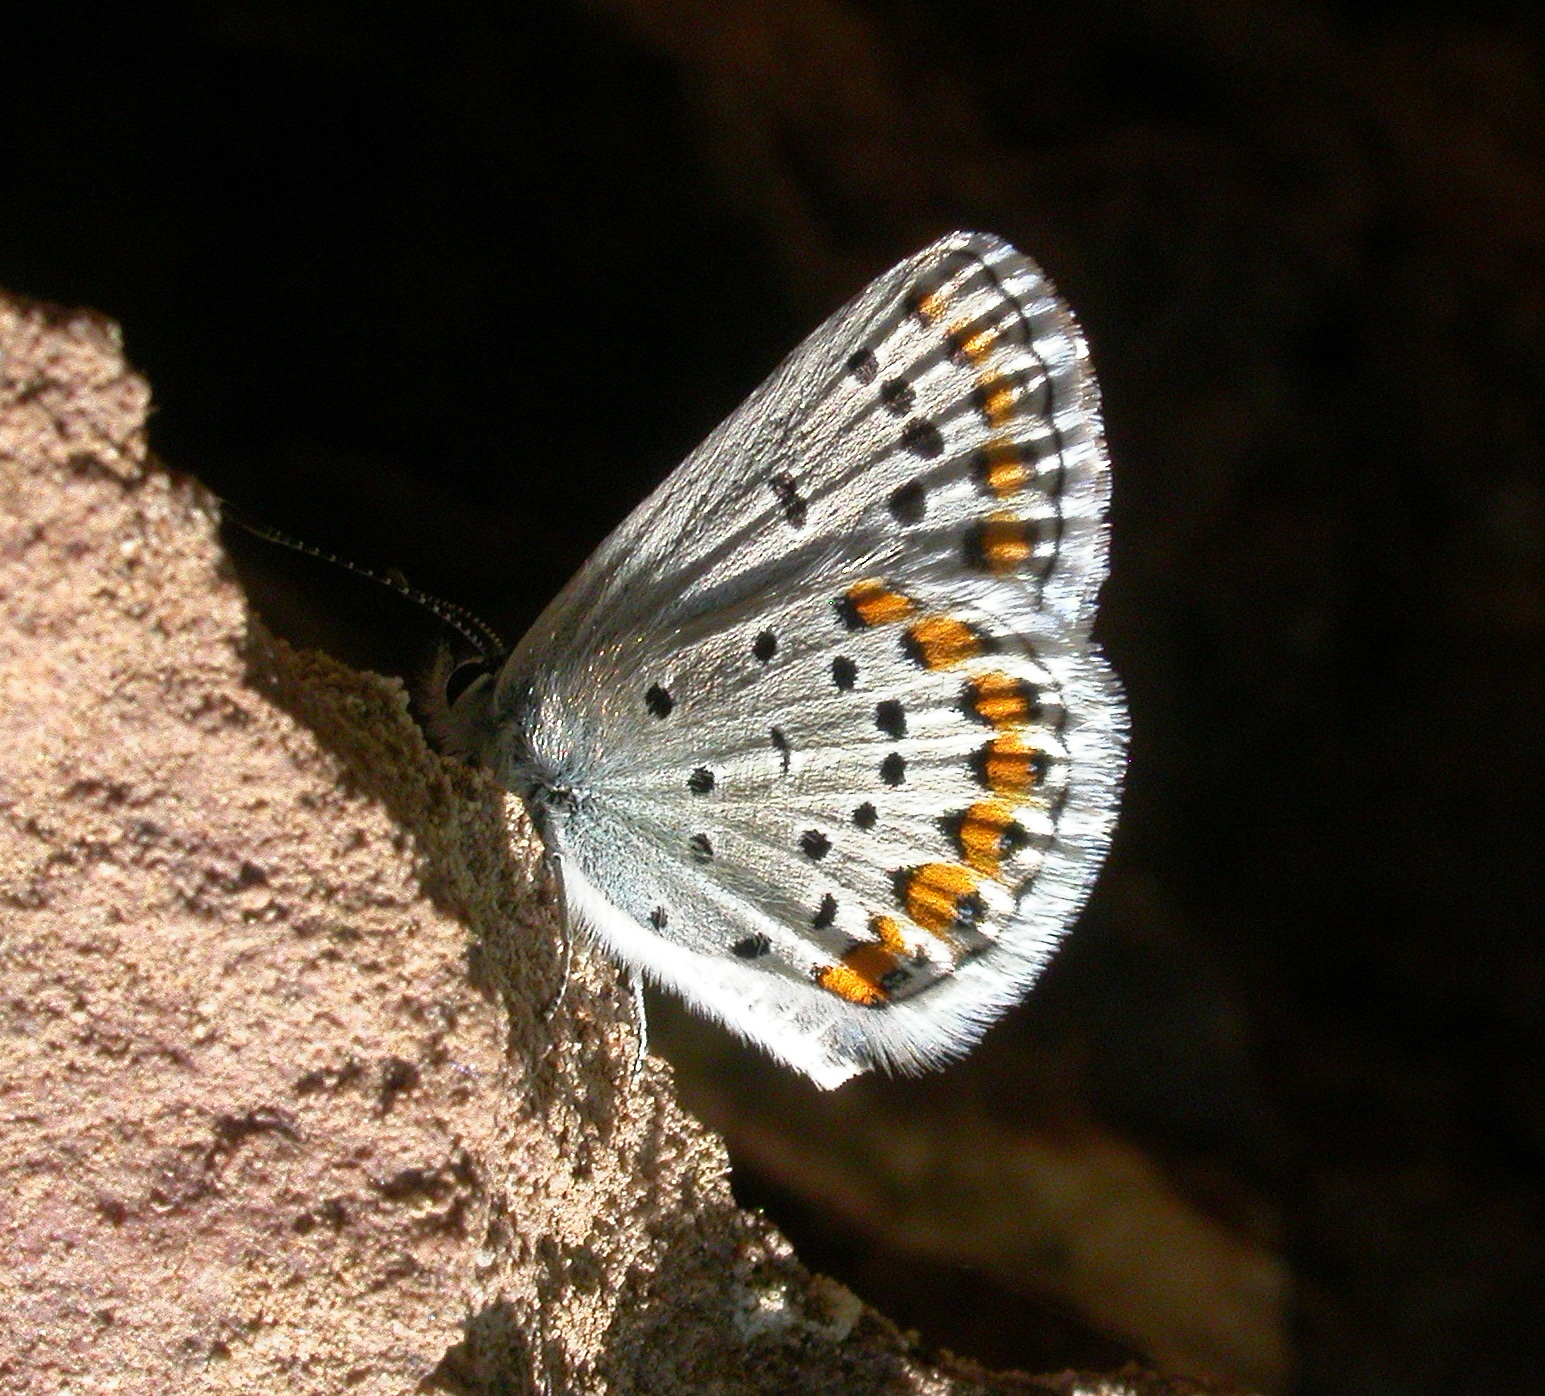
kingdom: Animalia
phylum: Arthropoda
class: Insecta
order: Lepidoptera
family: Lycaenidae
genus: Lycaeides
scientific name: Lycaeides melissa
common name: Melissa blue
